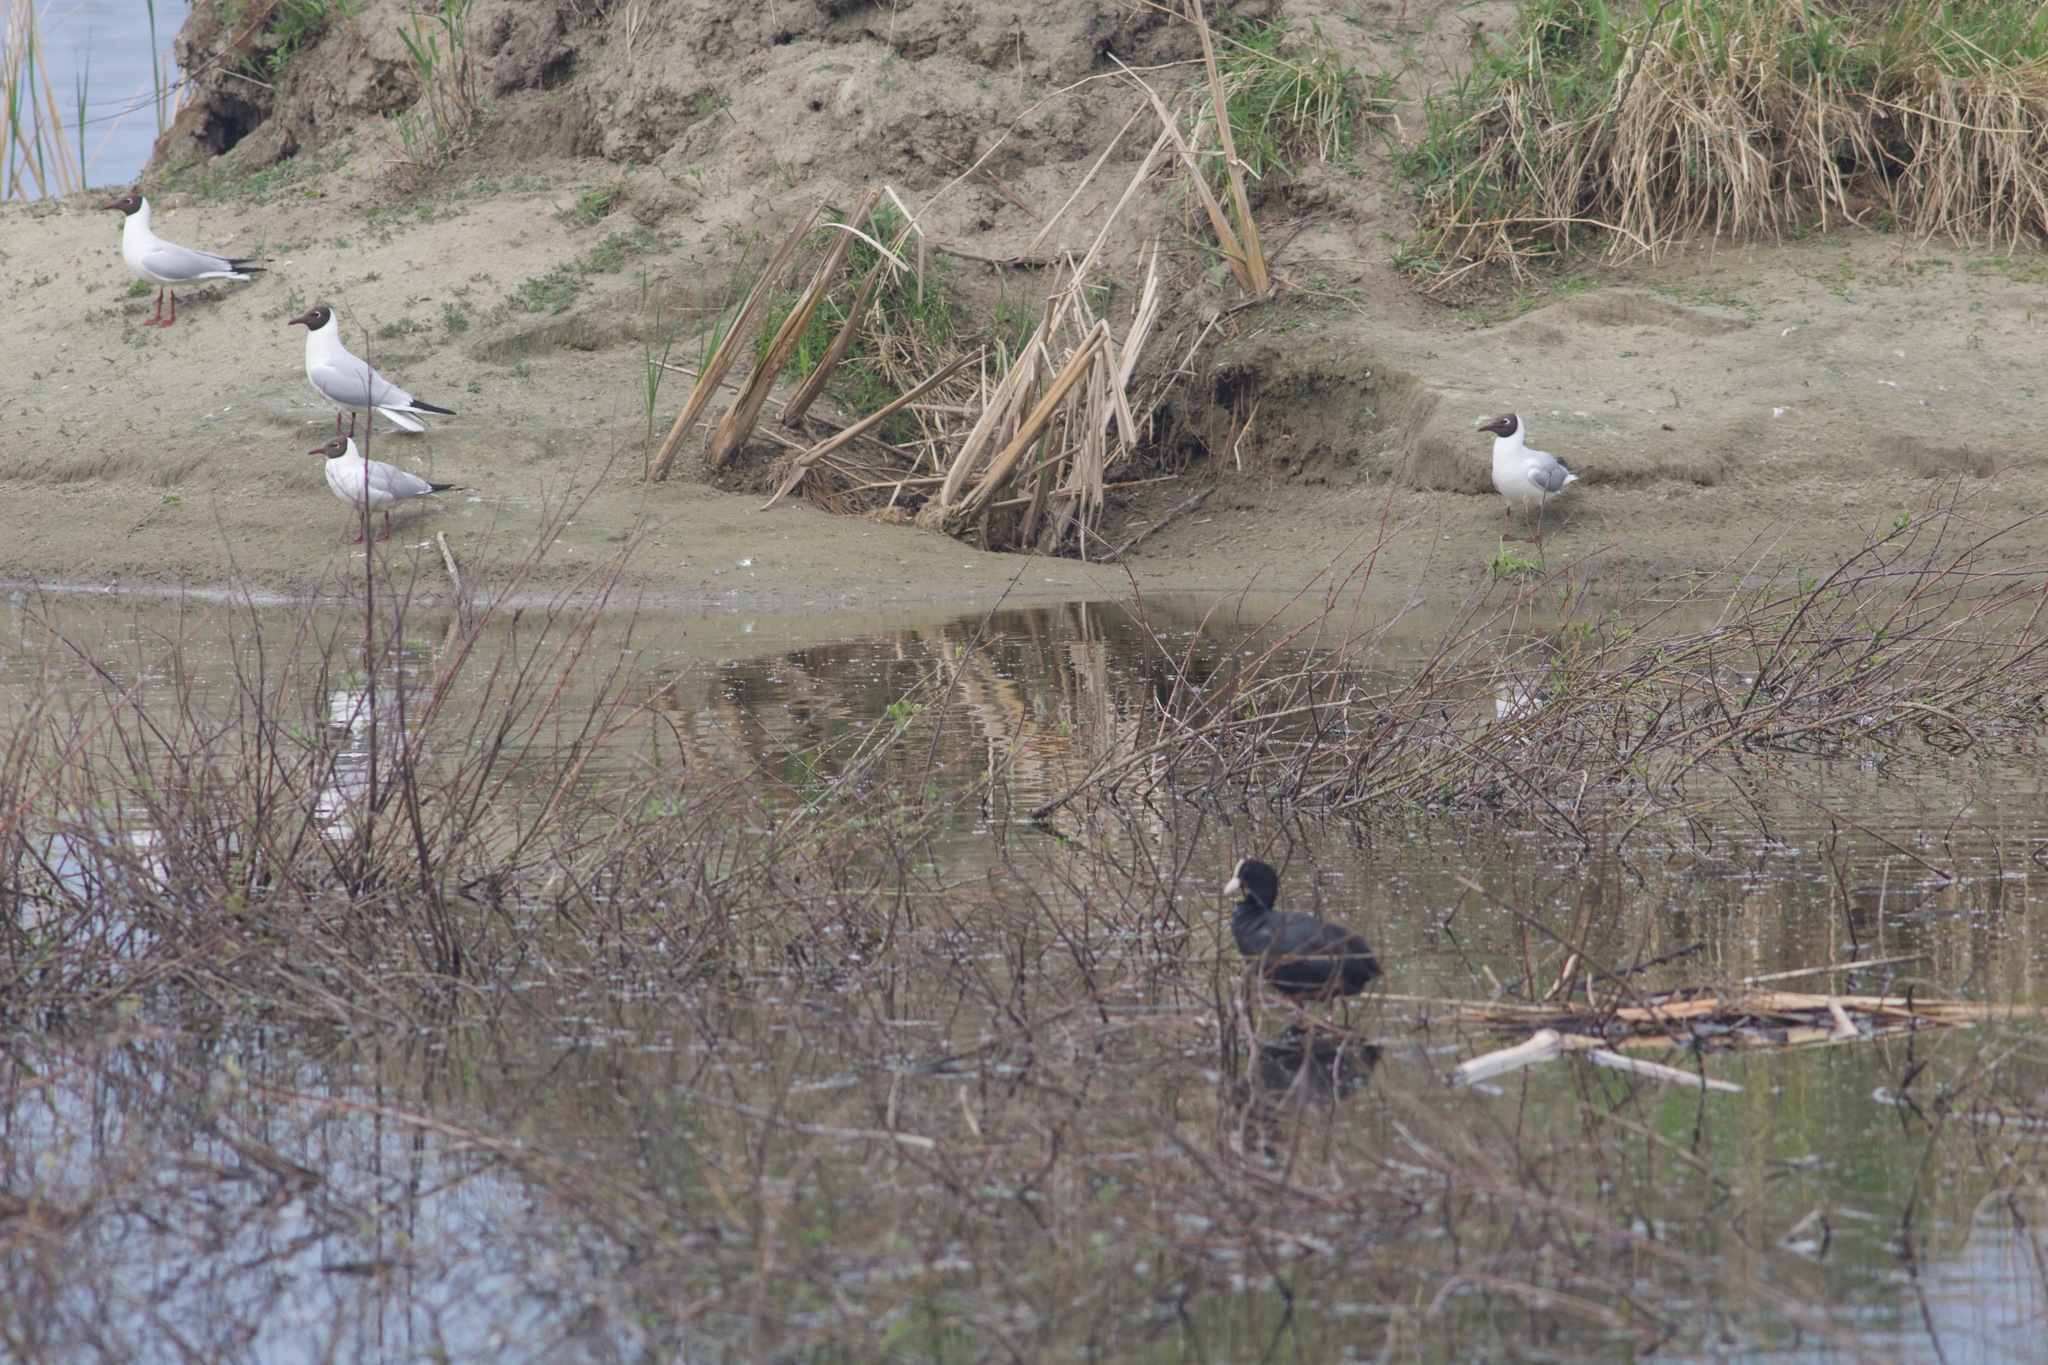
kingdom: Animalia
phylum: Chordata
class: Aves
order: Gruiformes
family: Rallidae
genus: Fulica
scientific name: Fulica atra
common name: Eurasian coot
